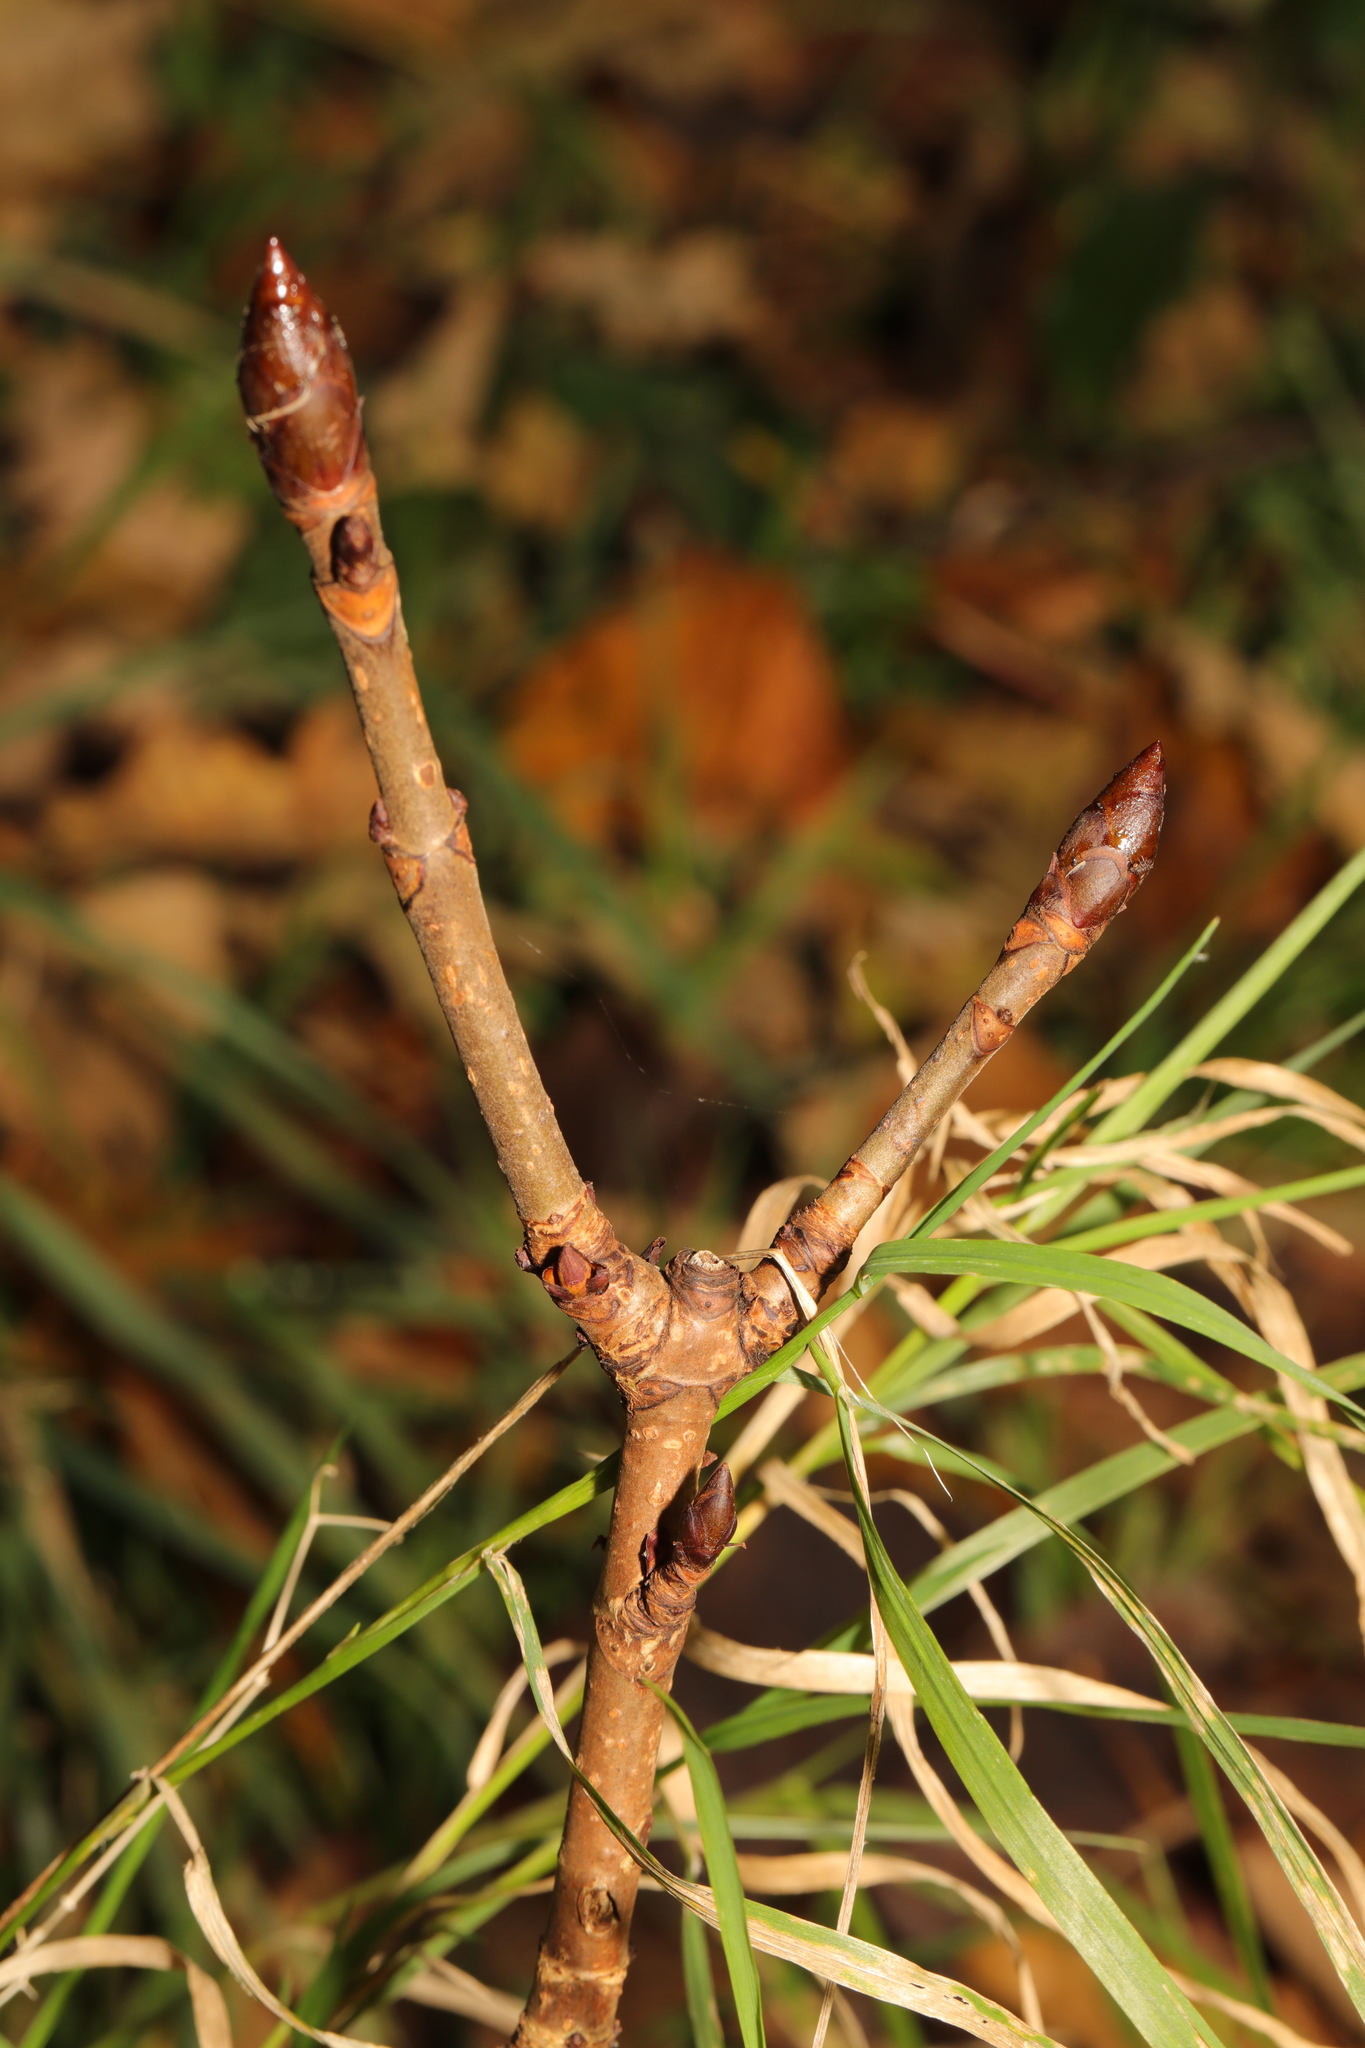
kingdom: Plantae
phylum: Tracheophyta
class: Magnoliopsida
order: Sapindales
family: Sapindaceae
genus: Aesculus
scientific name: Aesculus hippocastanum
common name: Horse-chestnut
